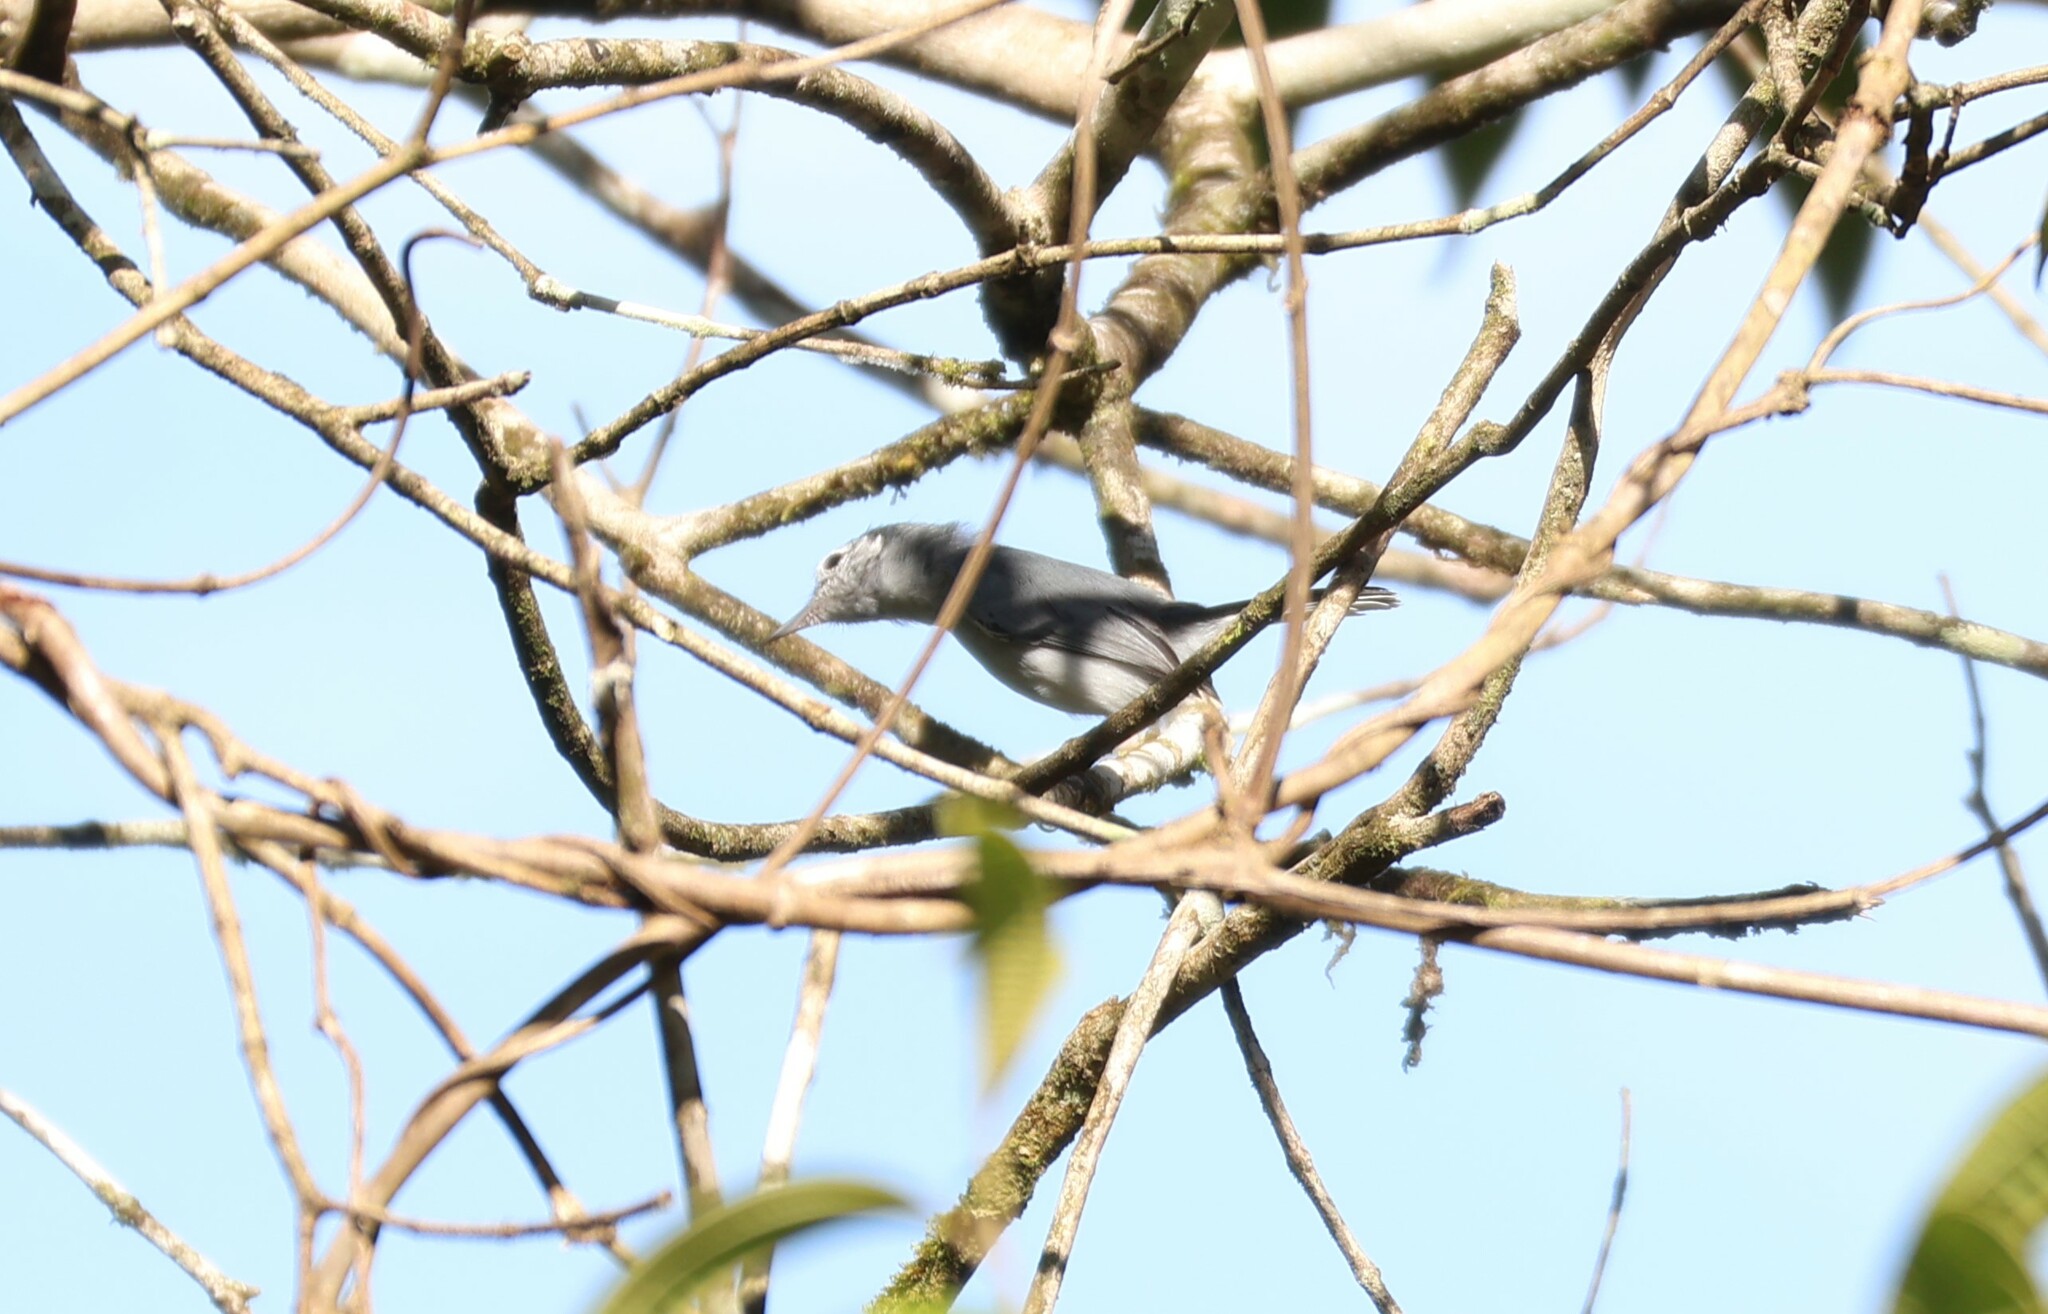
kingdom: Animalia
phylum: Chordata
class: Aves
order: Passeriformes
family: Polioptilidae
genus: Polioptila
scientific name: Polioptila plumbea
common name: Tropical gnatcatcher
